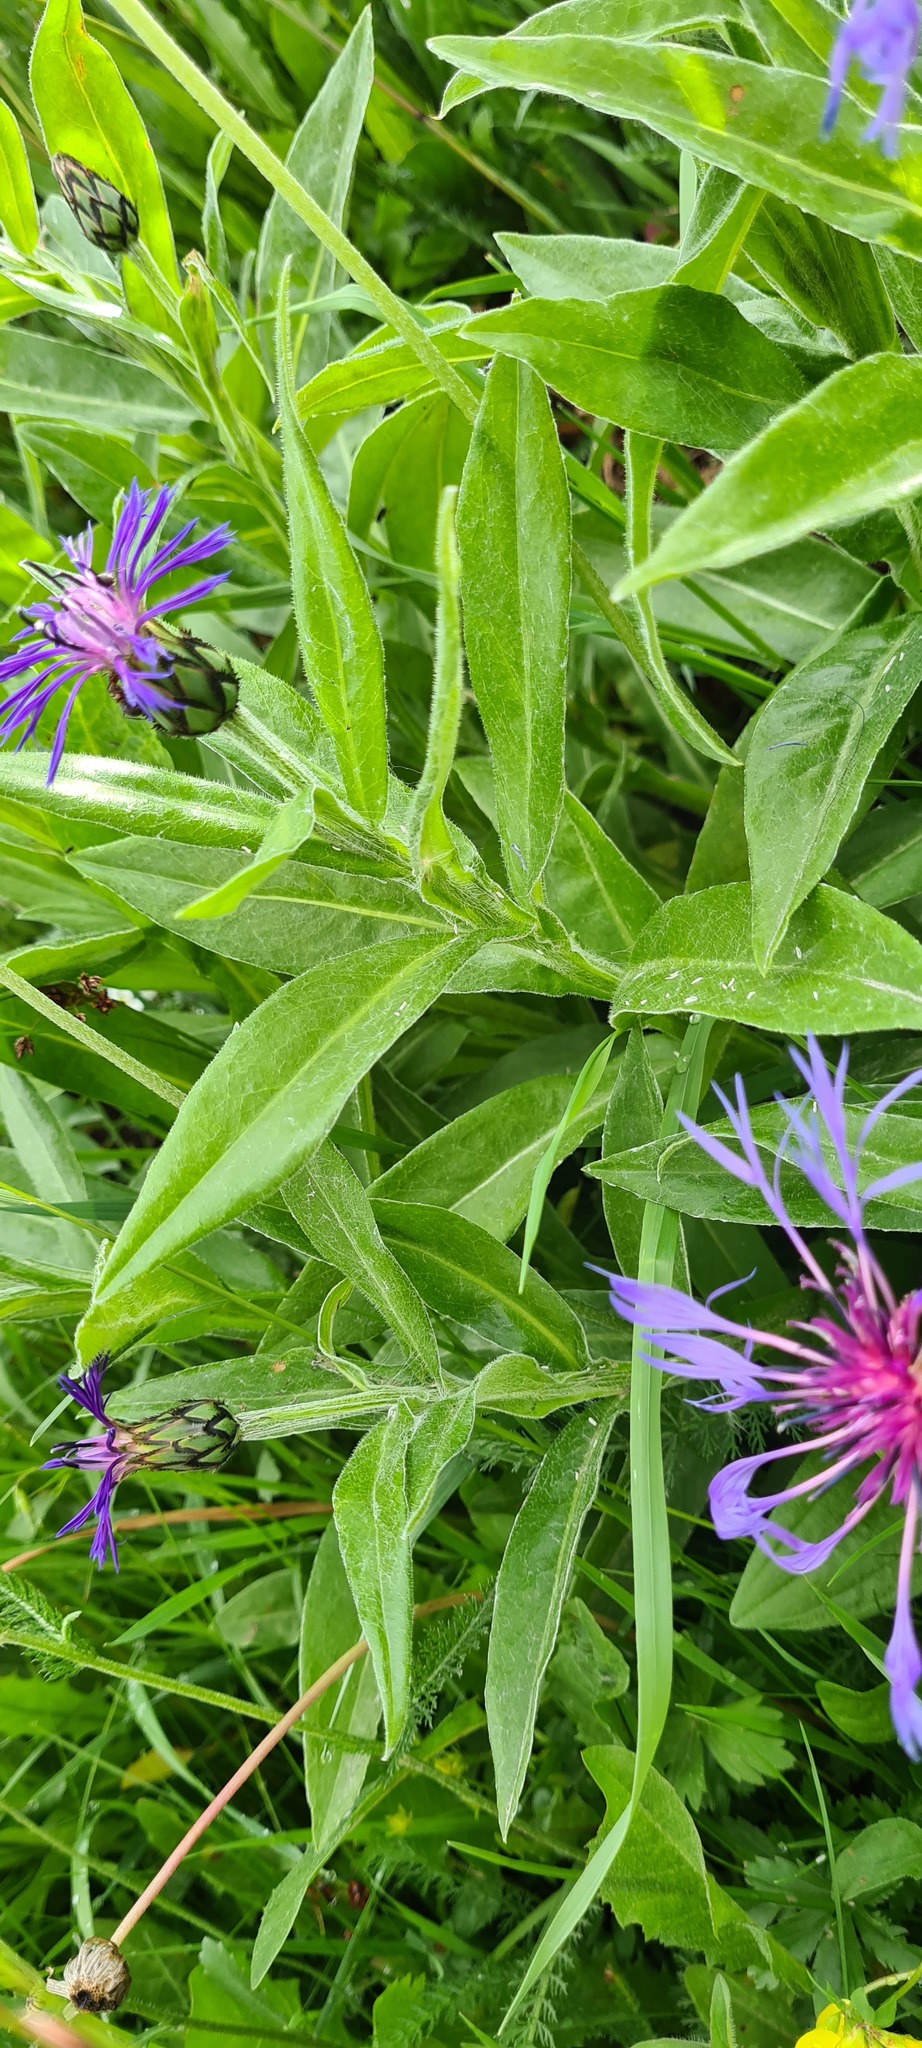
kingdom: Plantae
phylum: Tracheophyta
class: Magnoliopsida
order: Asterales
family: Asteraceae
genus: Centaurea
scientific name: Centaurea montana
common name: Perennial cornflower
